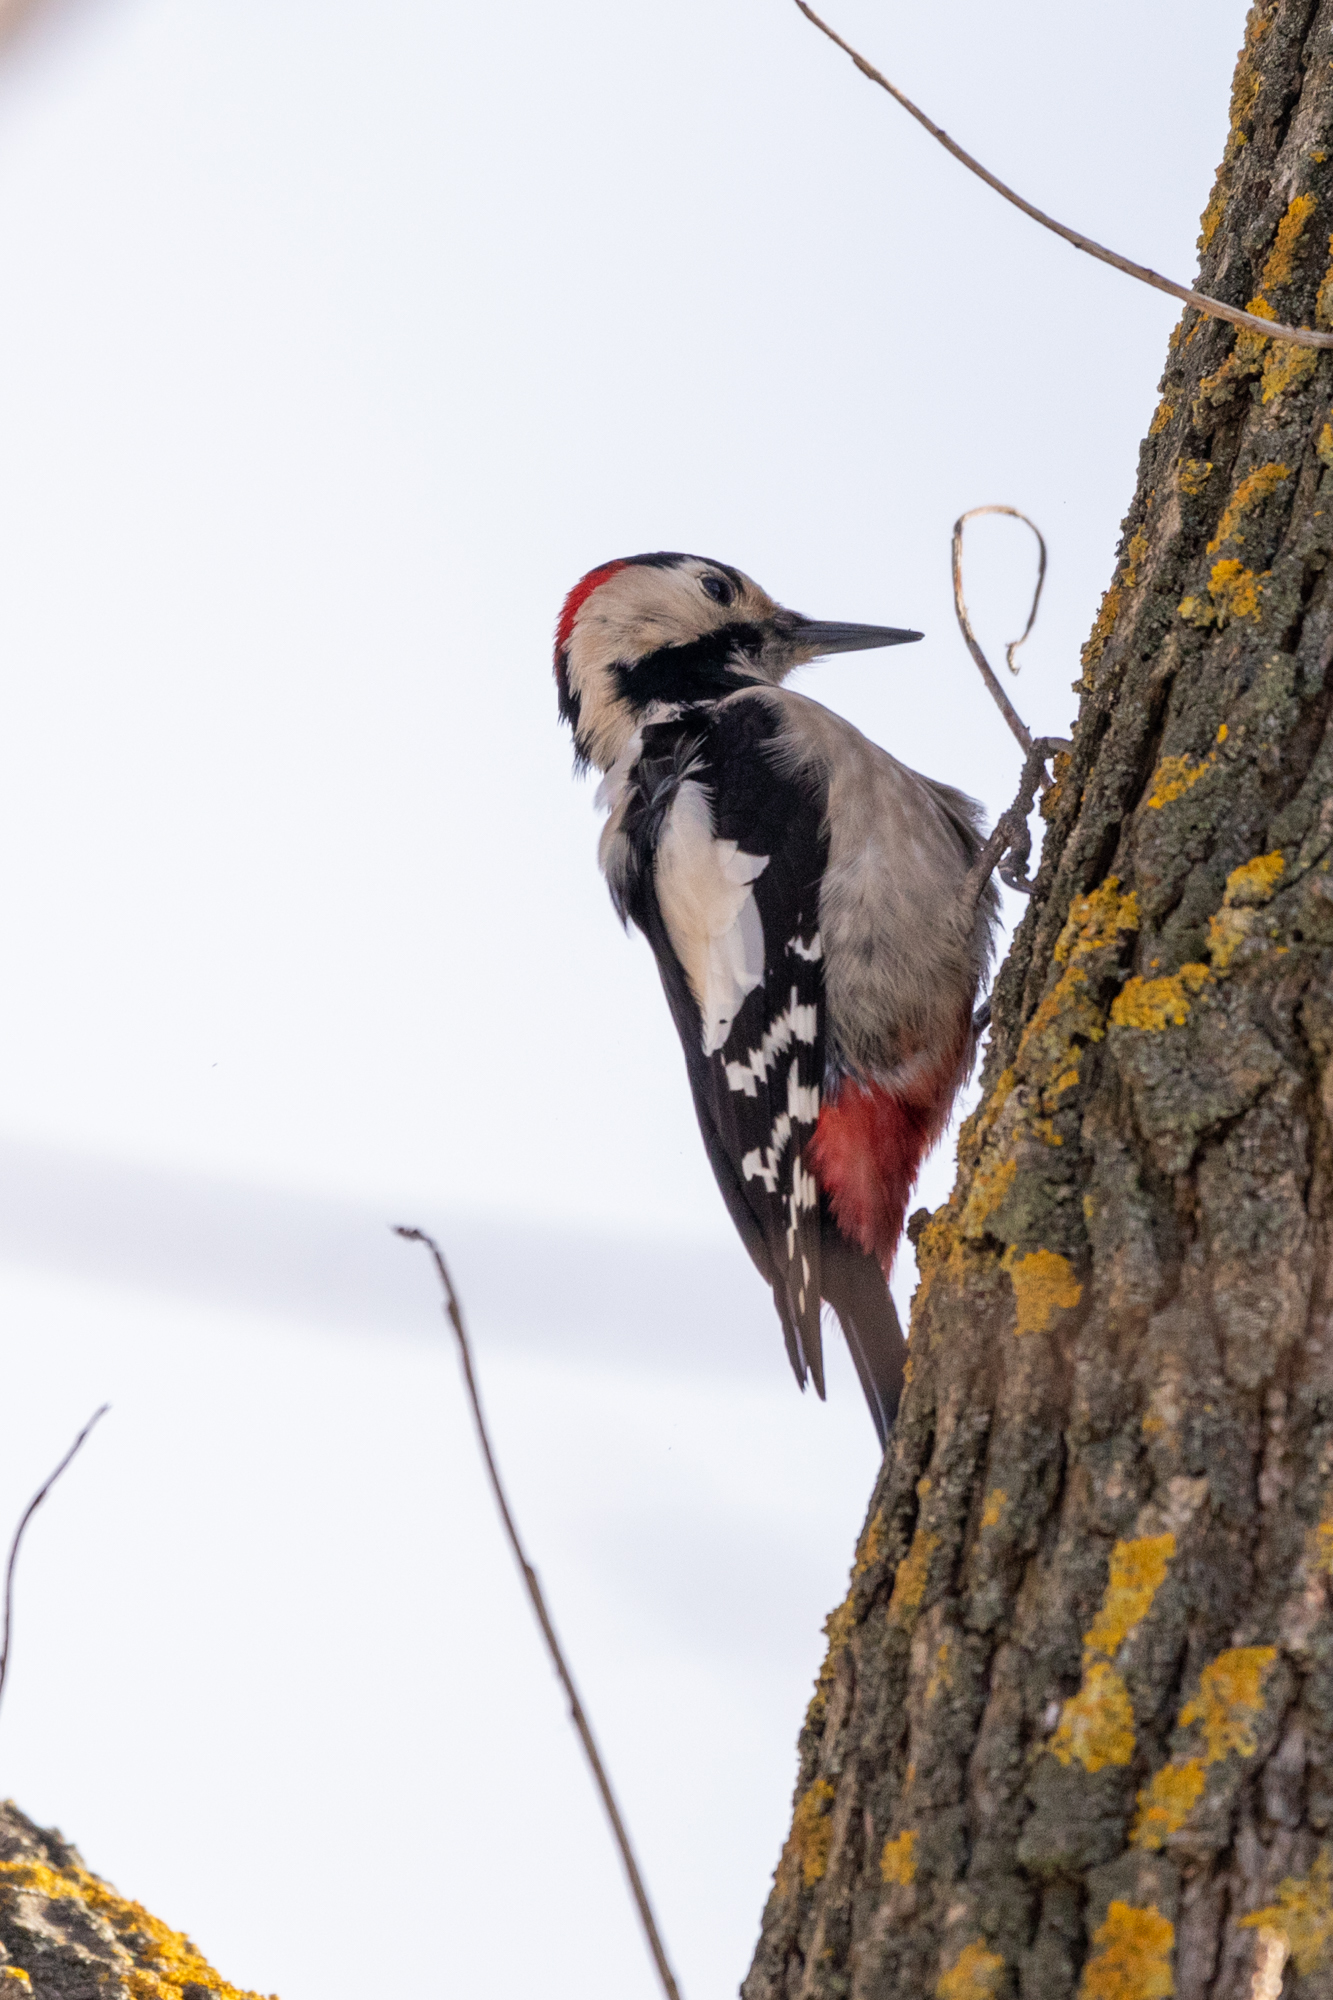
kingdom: Animalia
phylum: Chordata
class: Aves
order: Piciformes
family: Picidae
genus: Dendrocopos
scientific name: Dendrocopos syriacus
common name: Syrian woodpecker
